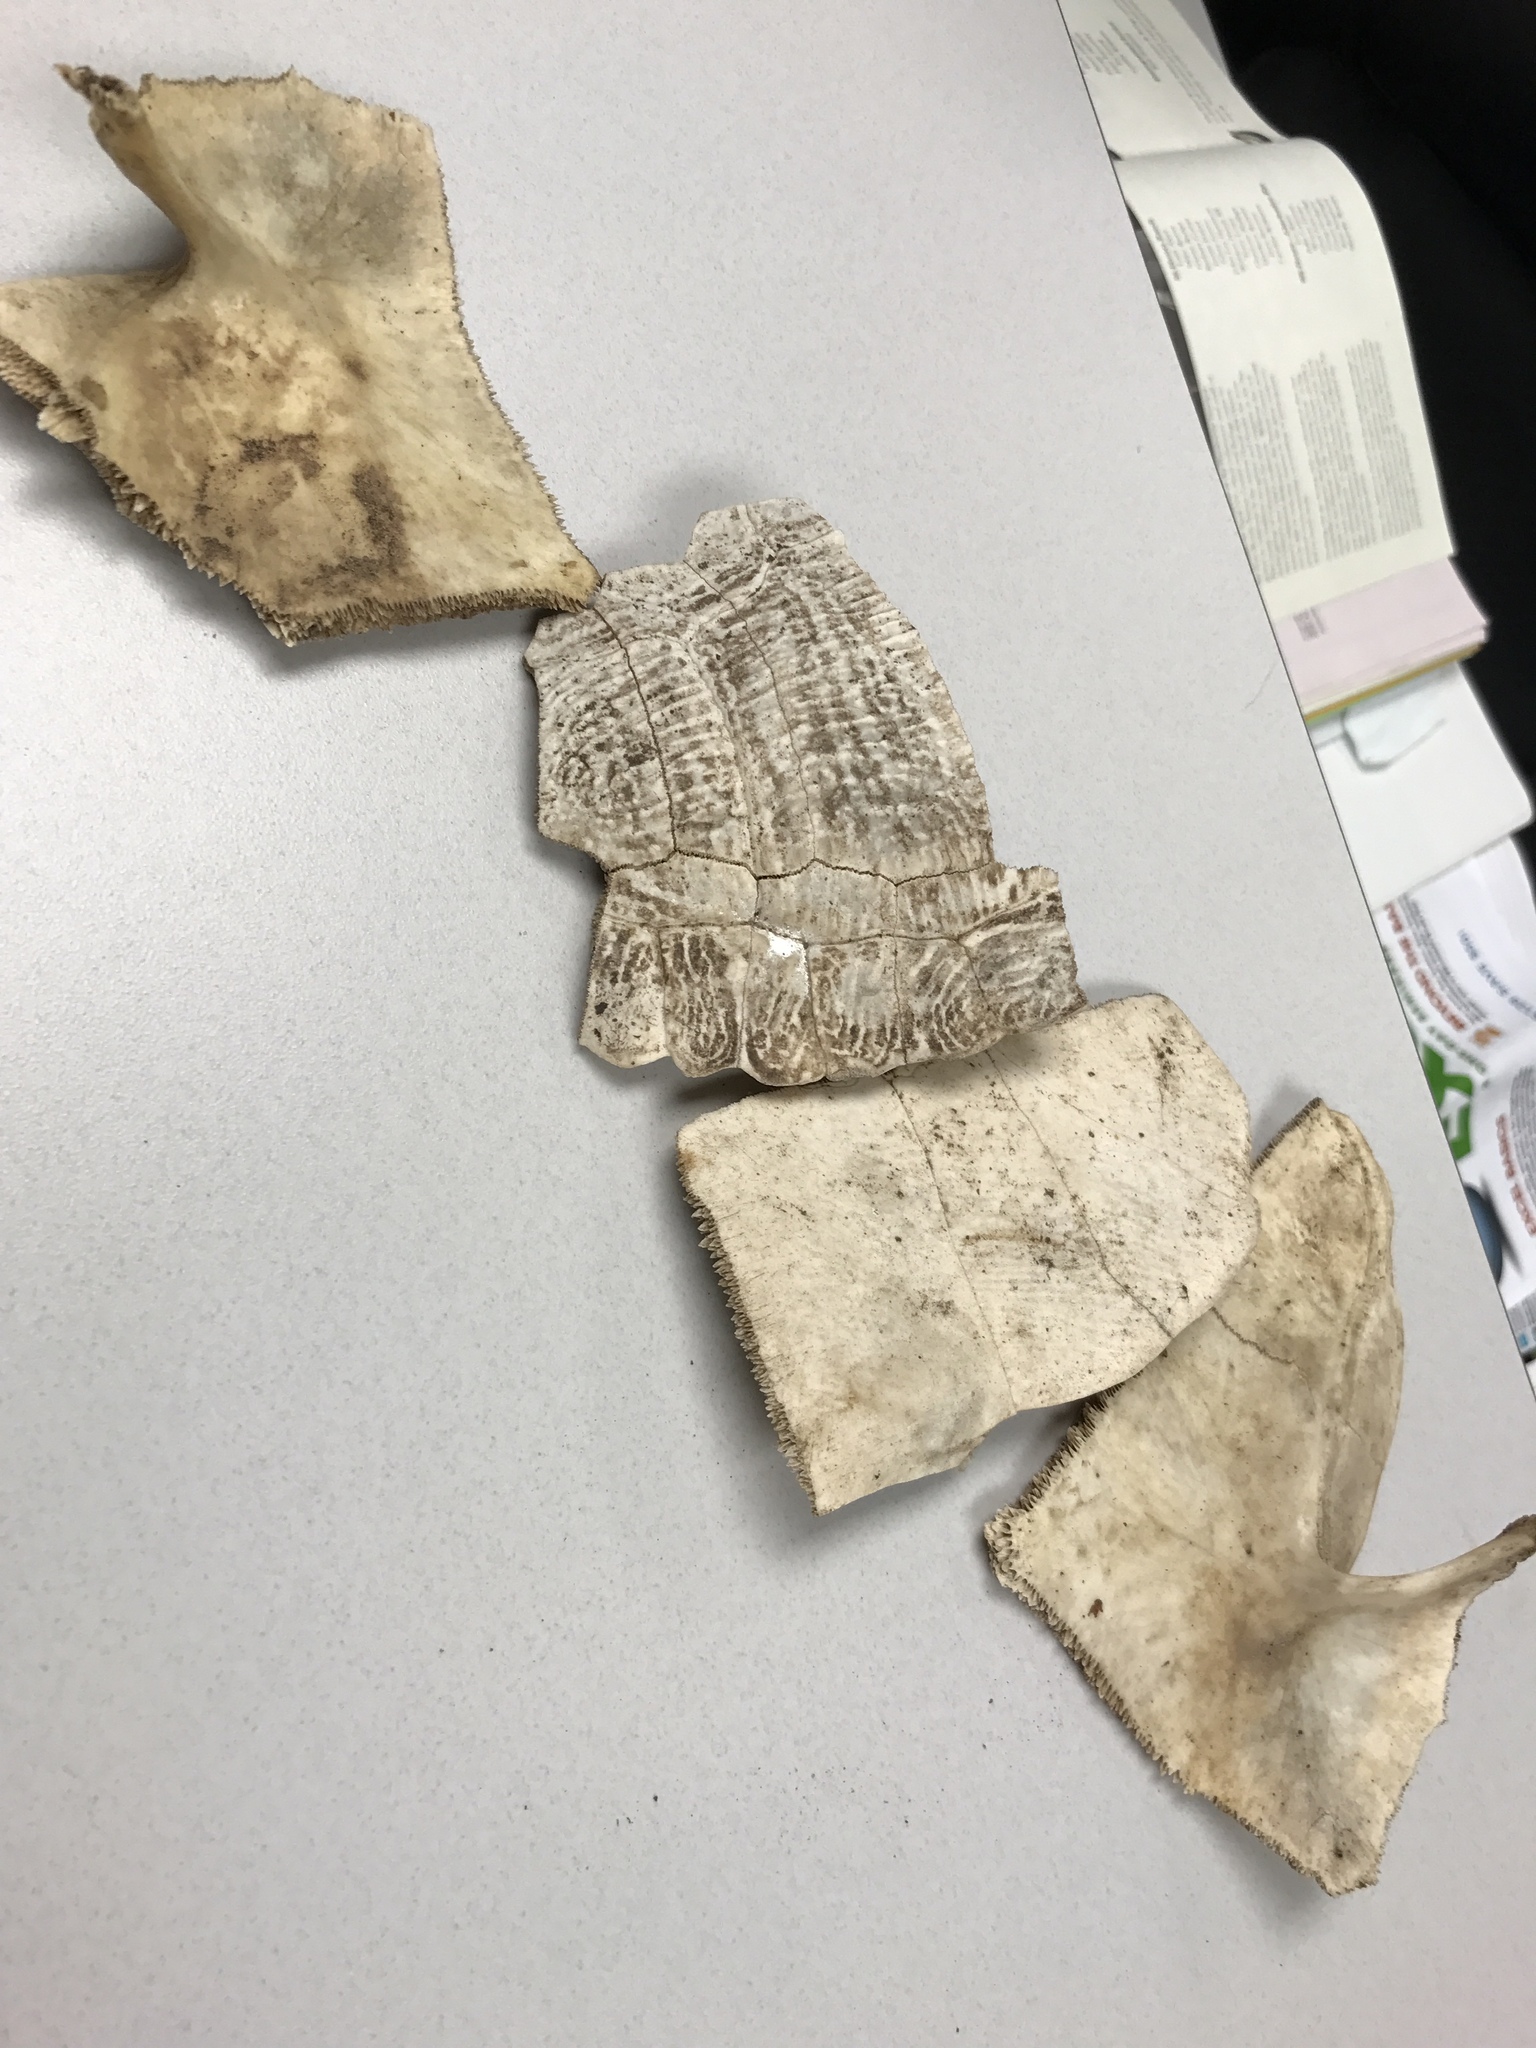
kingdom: Animalia
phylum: Chordata
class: Testudines
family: Emydidae
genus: Pseudemys
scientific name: Pseudemys
